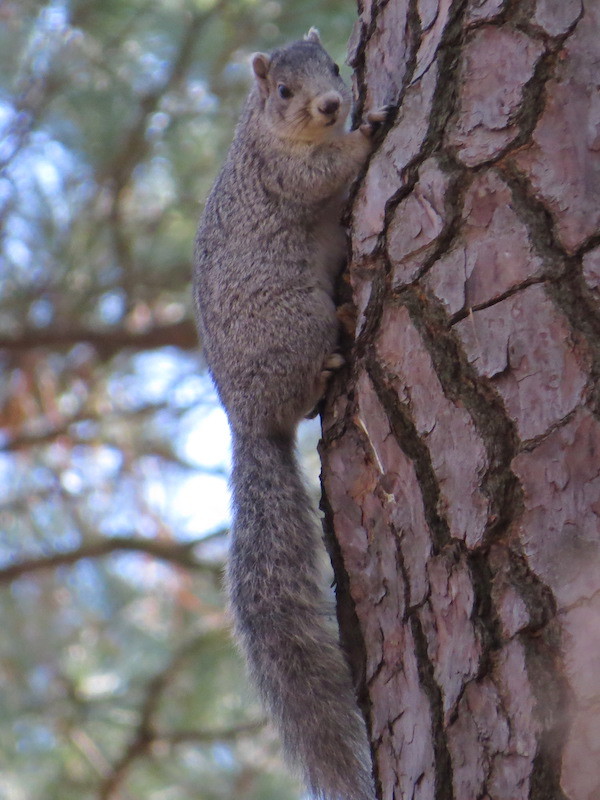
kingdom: Animalia
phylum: Chordata
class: Mammalia
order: Rodentia
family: Sciuridae
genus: Sciurus
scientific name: Sciurus niger
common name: Fox squirrel
